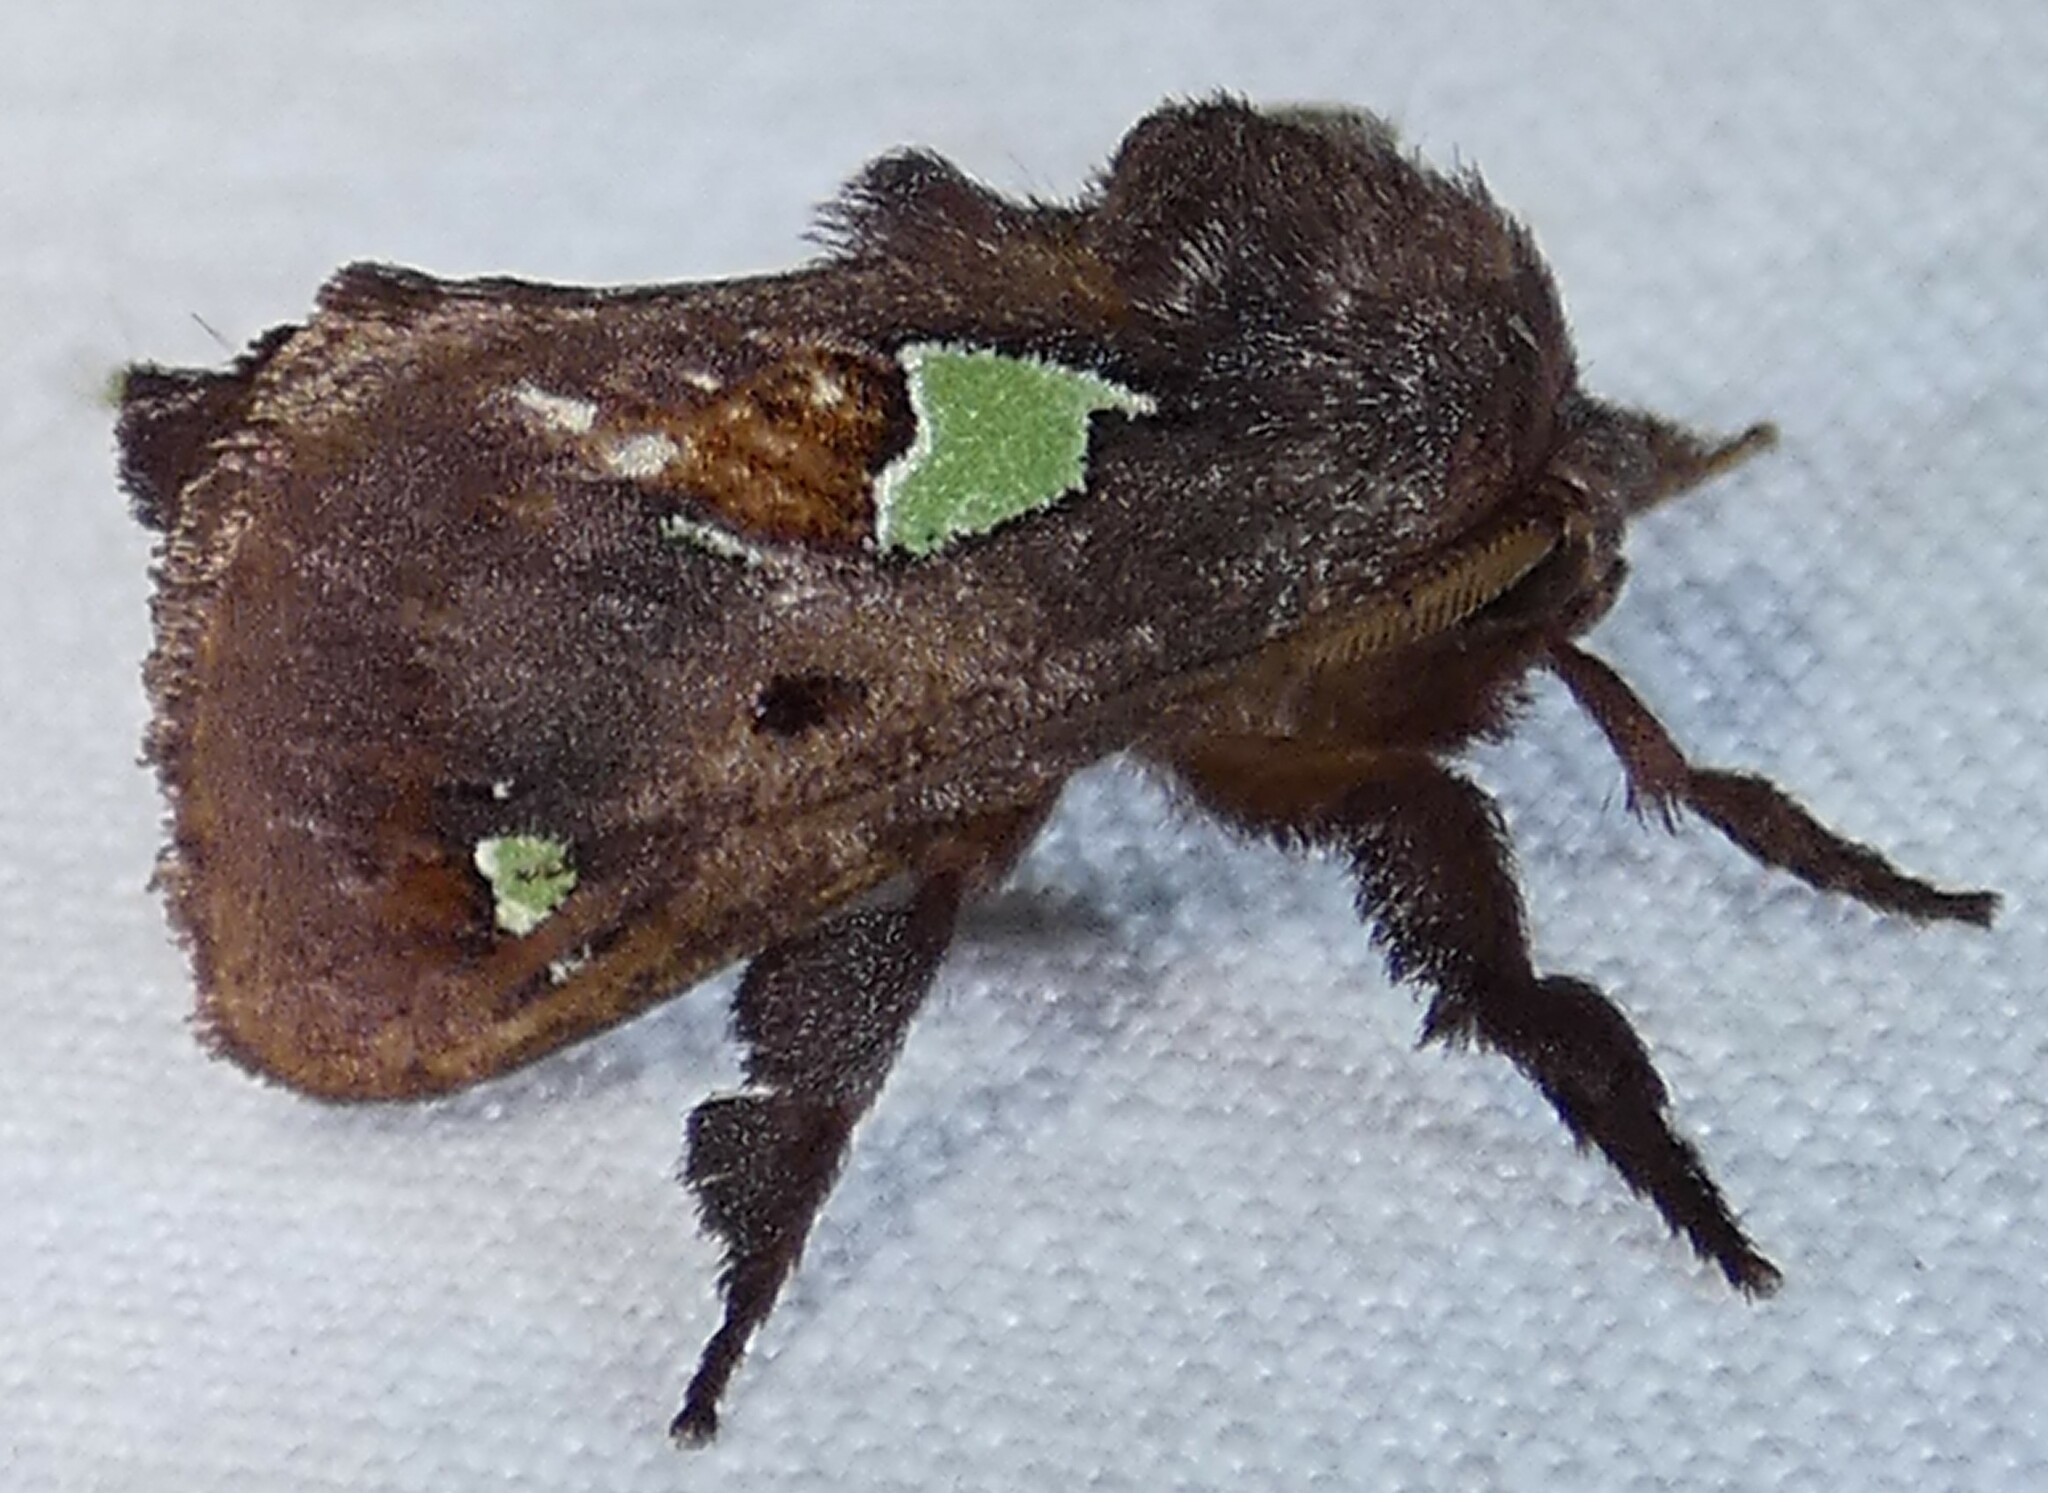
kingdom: Animalia
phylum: Arthropoda
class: Insecta
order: Lepidoptera
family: Limacodidae
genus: Euclea
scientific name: Euclea delphinii
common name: Spiny oak-slug moth
